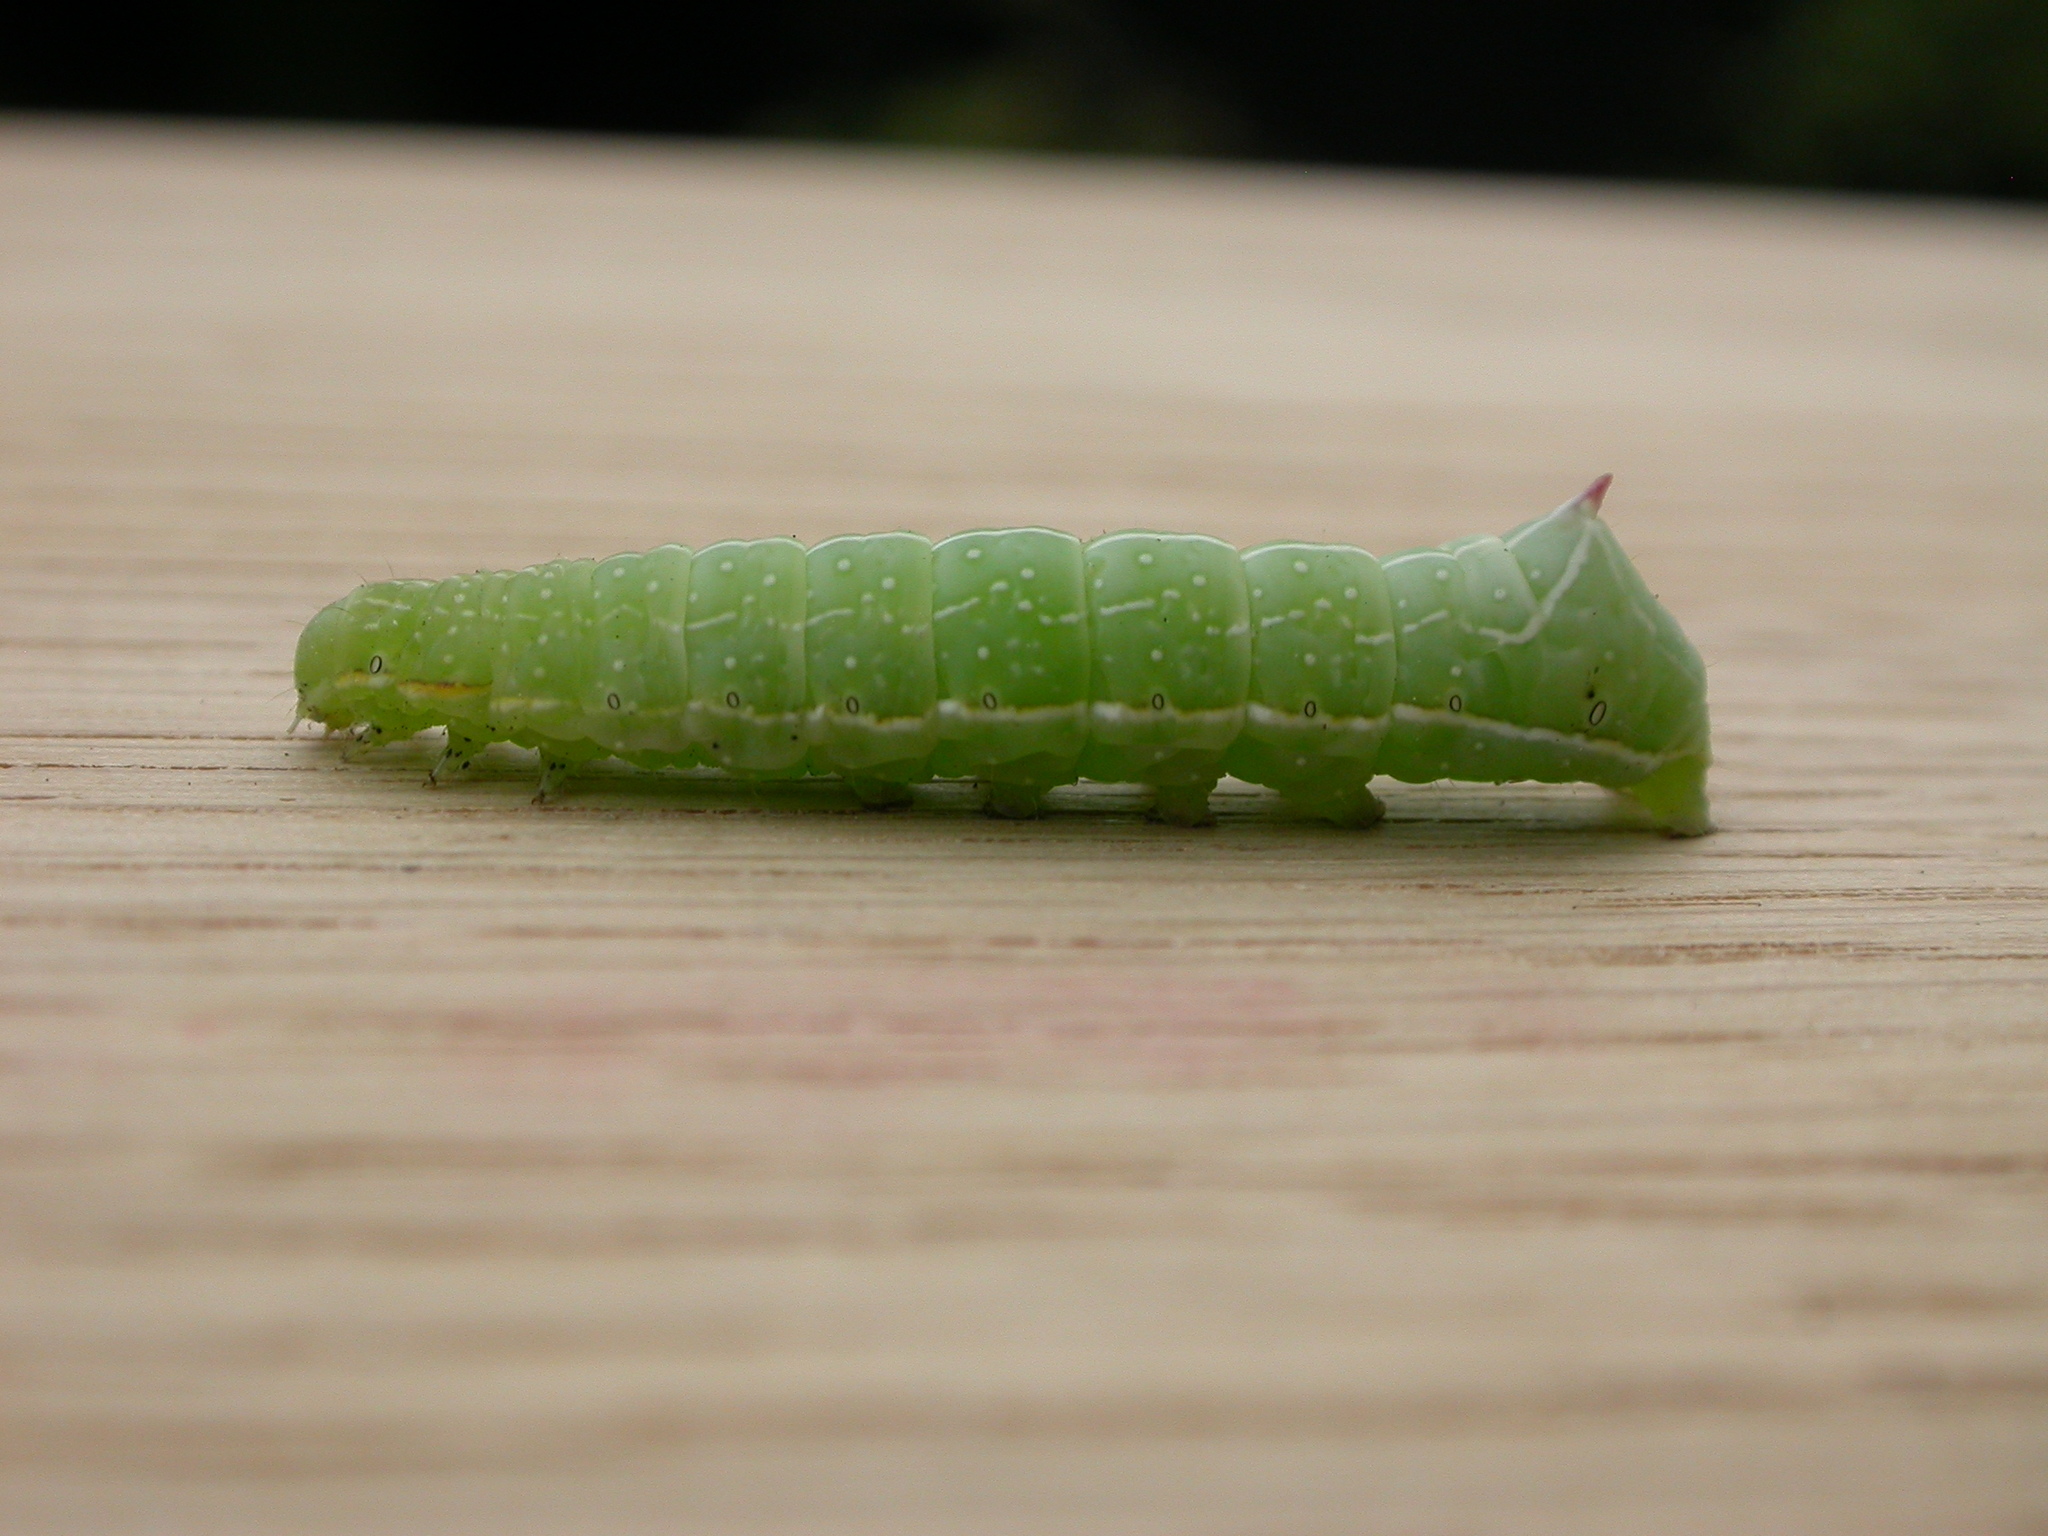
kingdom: Animalia
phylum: Arthropoda
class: Insecta
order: Lepidoptera
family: Noctuidae
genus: Amphipyra
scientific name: Amphipyra berbera
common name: Svensson's copper underwing
